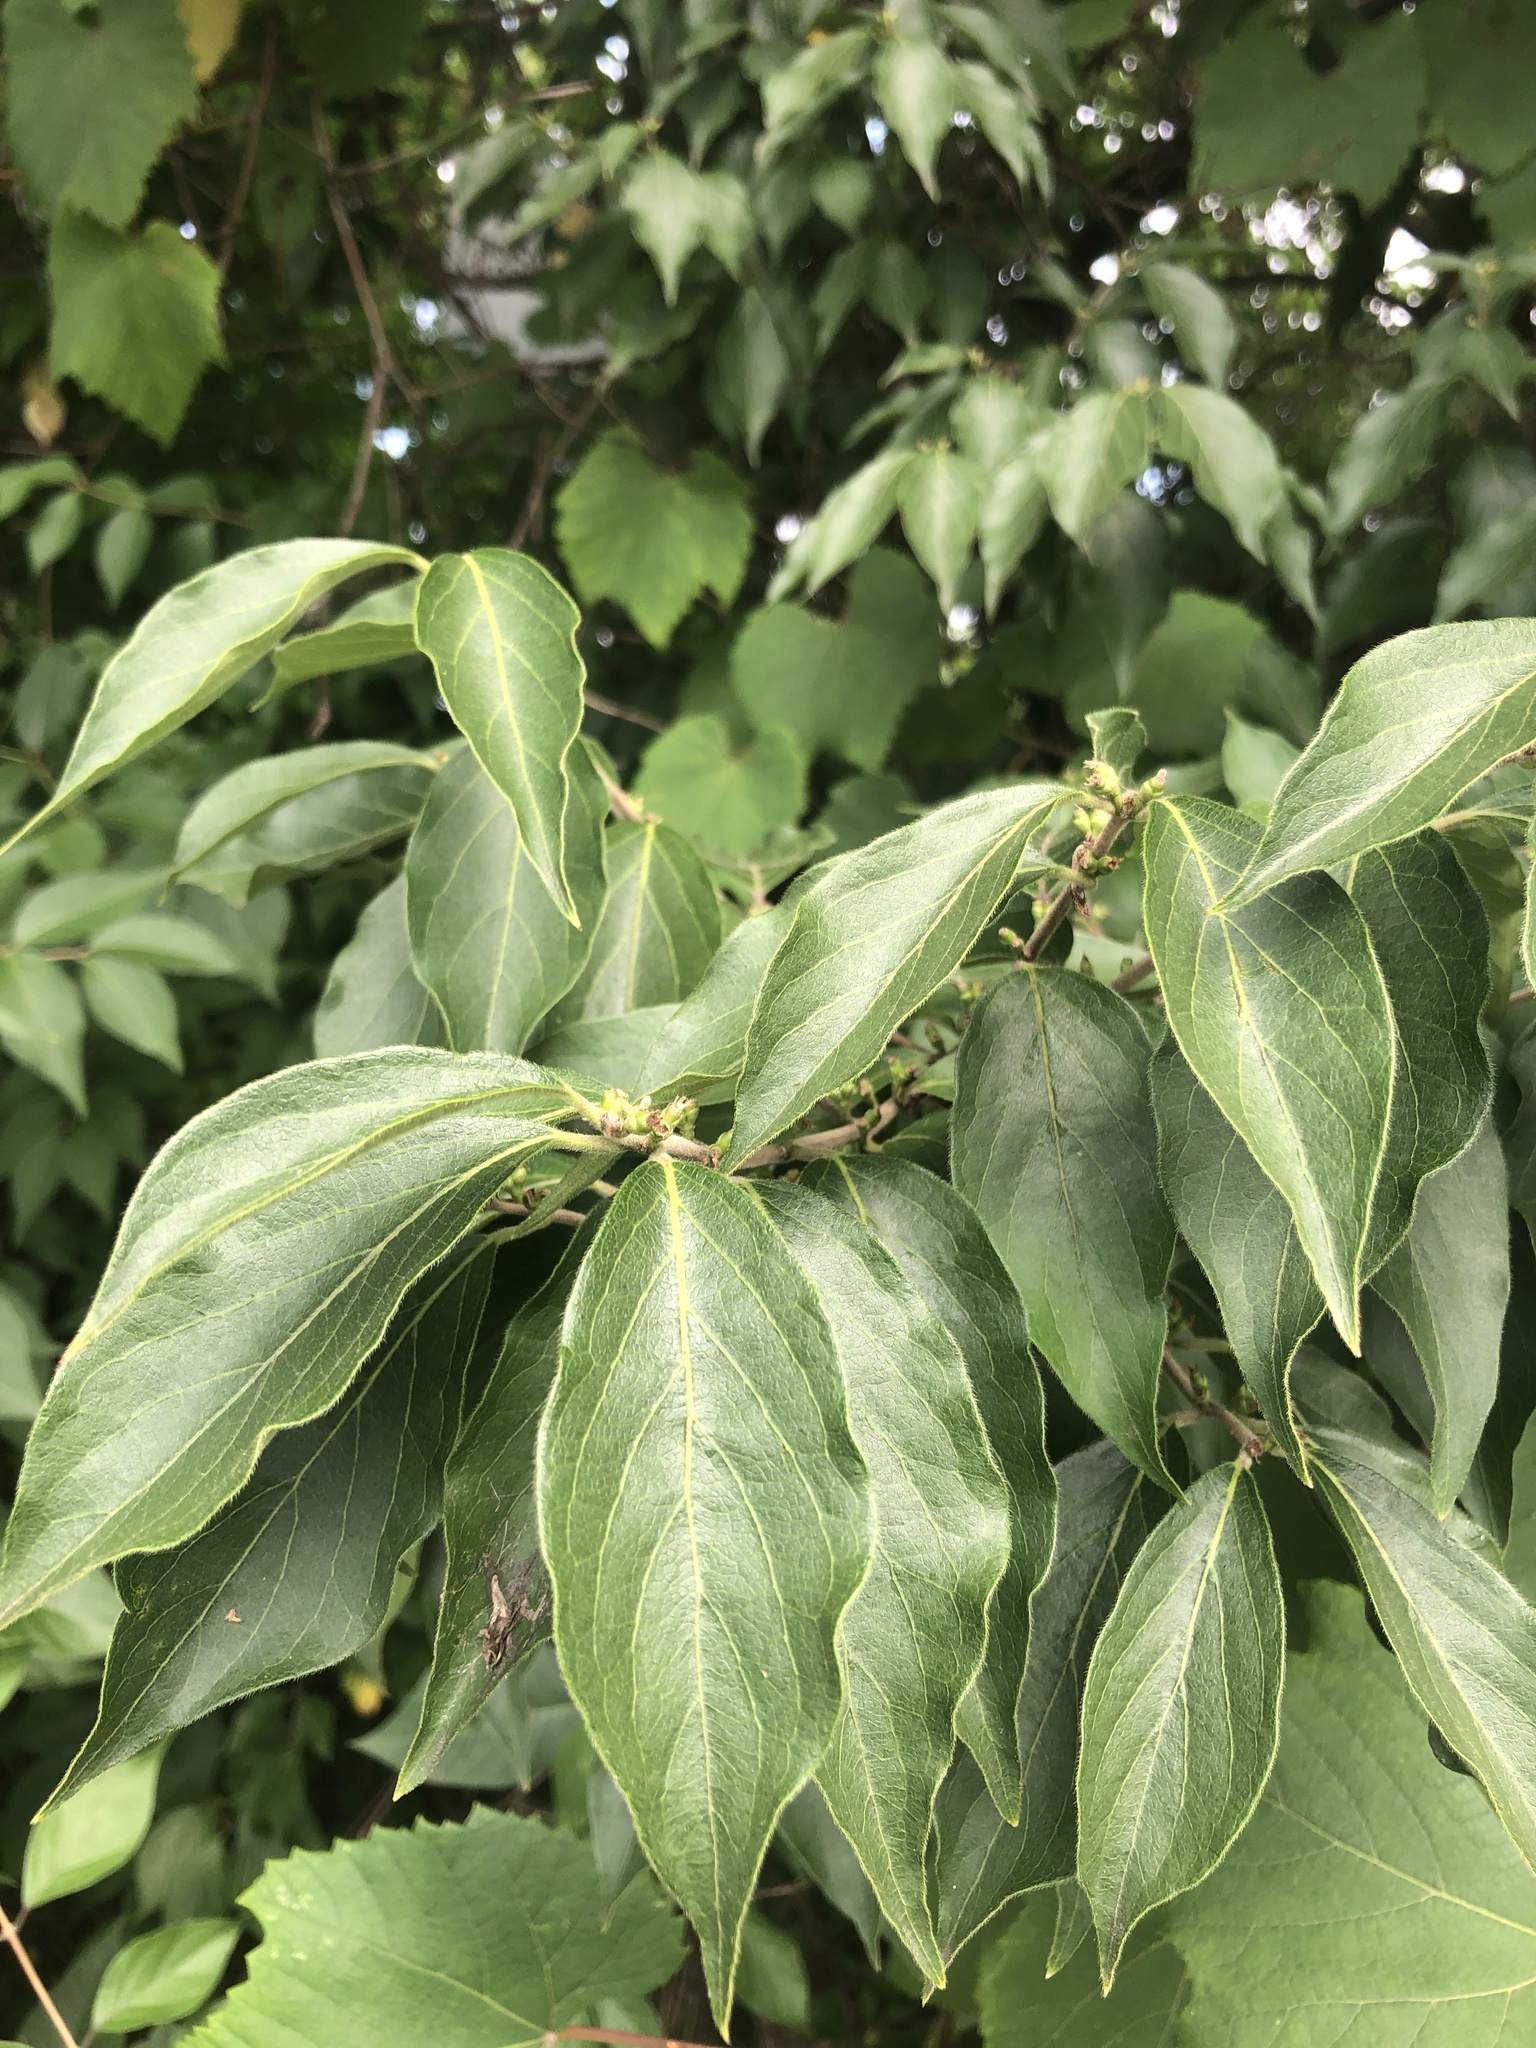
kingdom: Plantae
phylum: Tracheophyta
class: Magnoliopsida
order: Dipsacales
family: Caprifoliaceae
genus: Lonicera
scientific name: Lonicera maackii
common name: Amur honeysuckle
